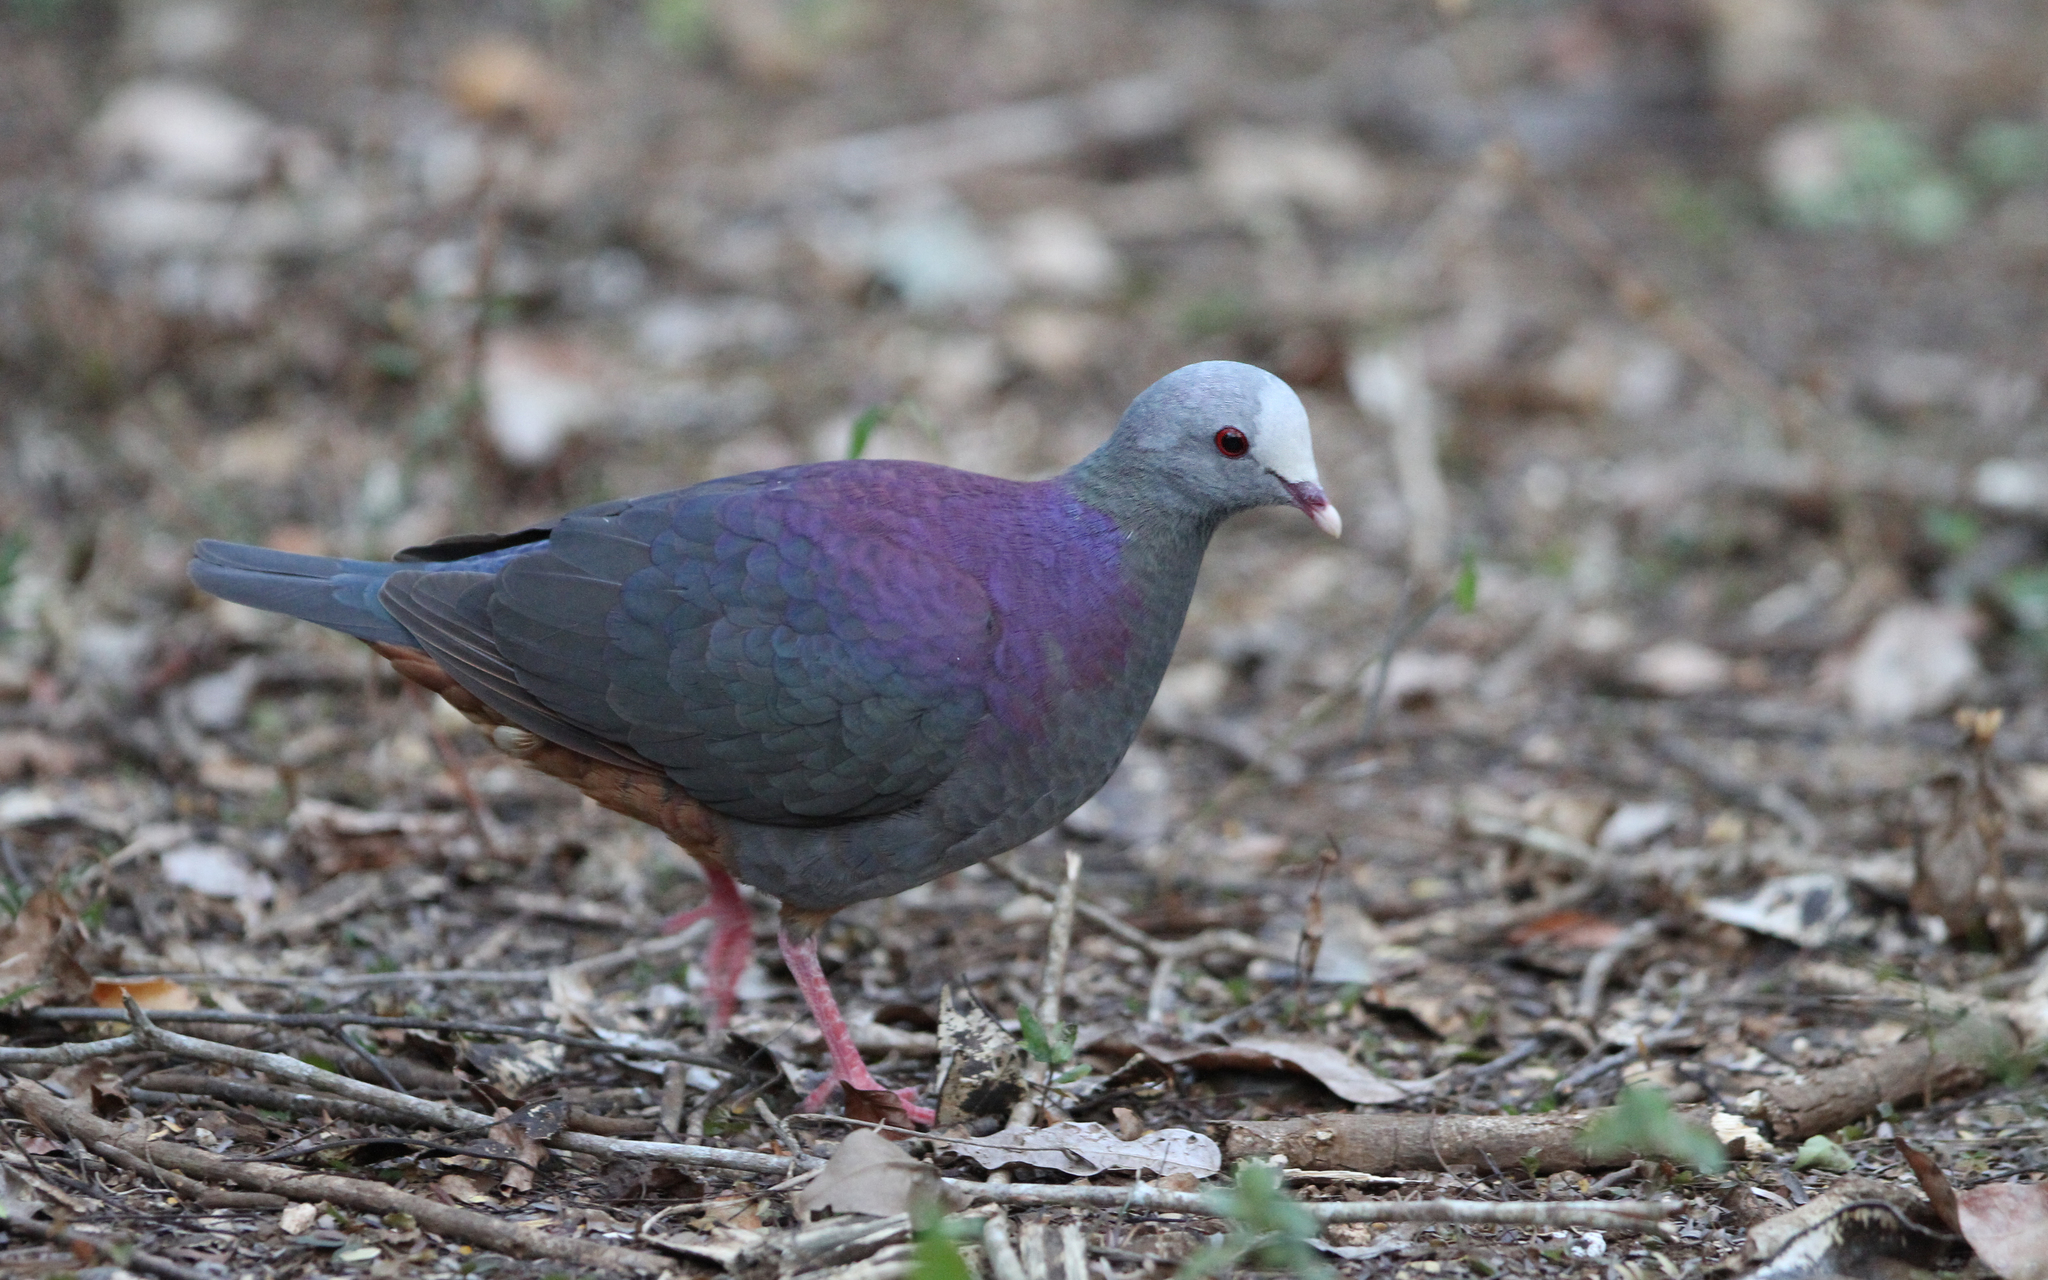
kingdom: Animalia
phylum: Chordata
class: Aves
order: Columbiformes
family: Columbidae
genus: Geotrygon
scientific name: Geotrygon caniceps
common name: Gray-fronted quail-dove
